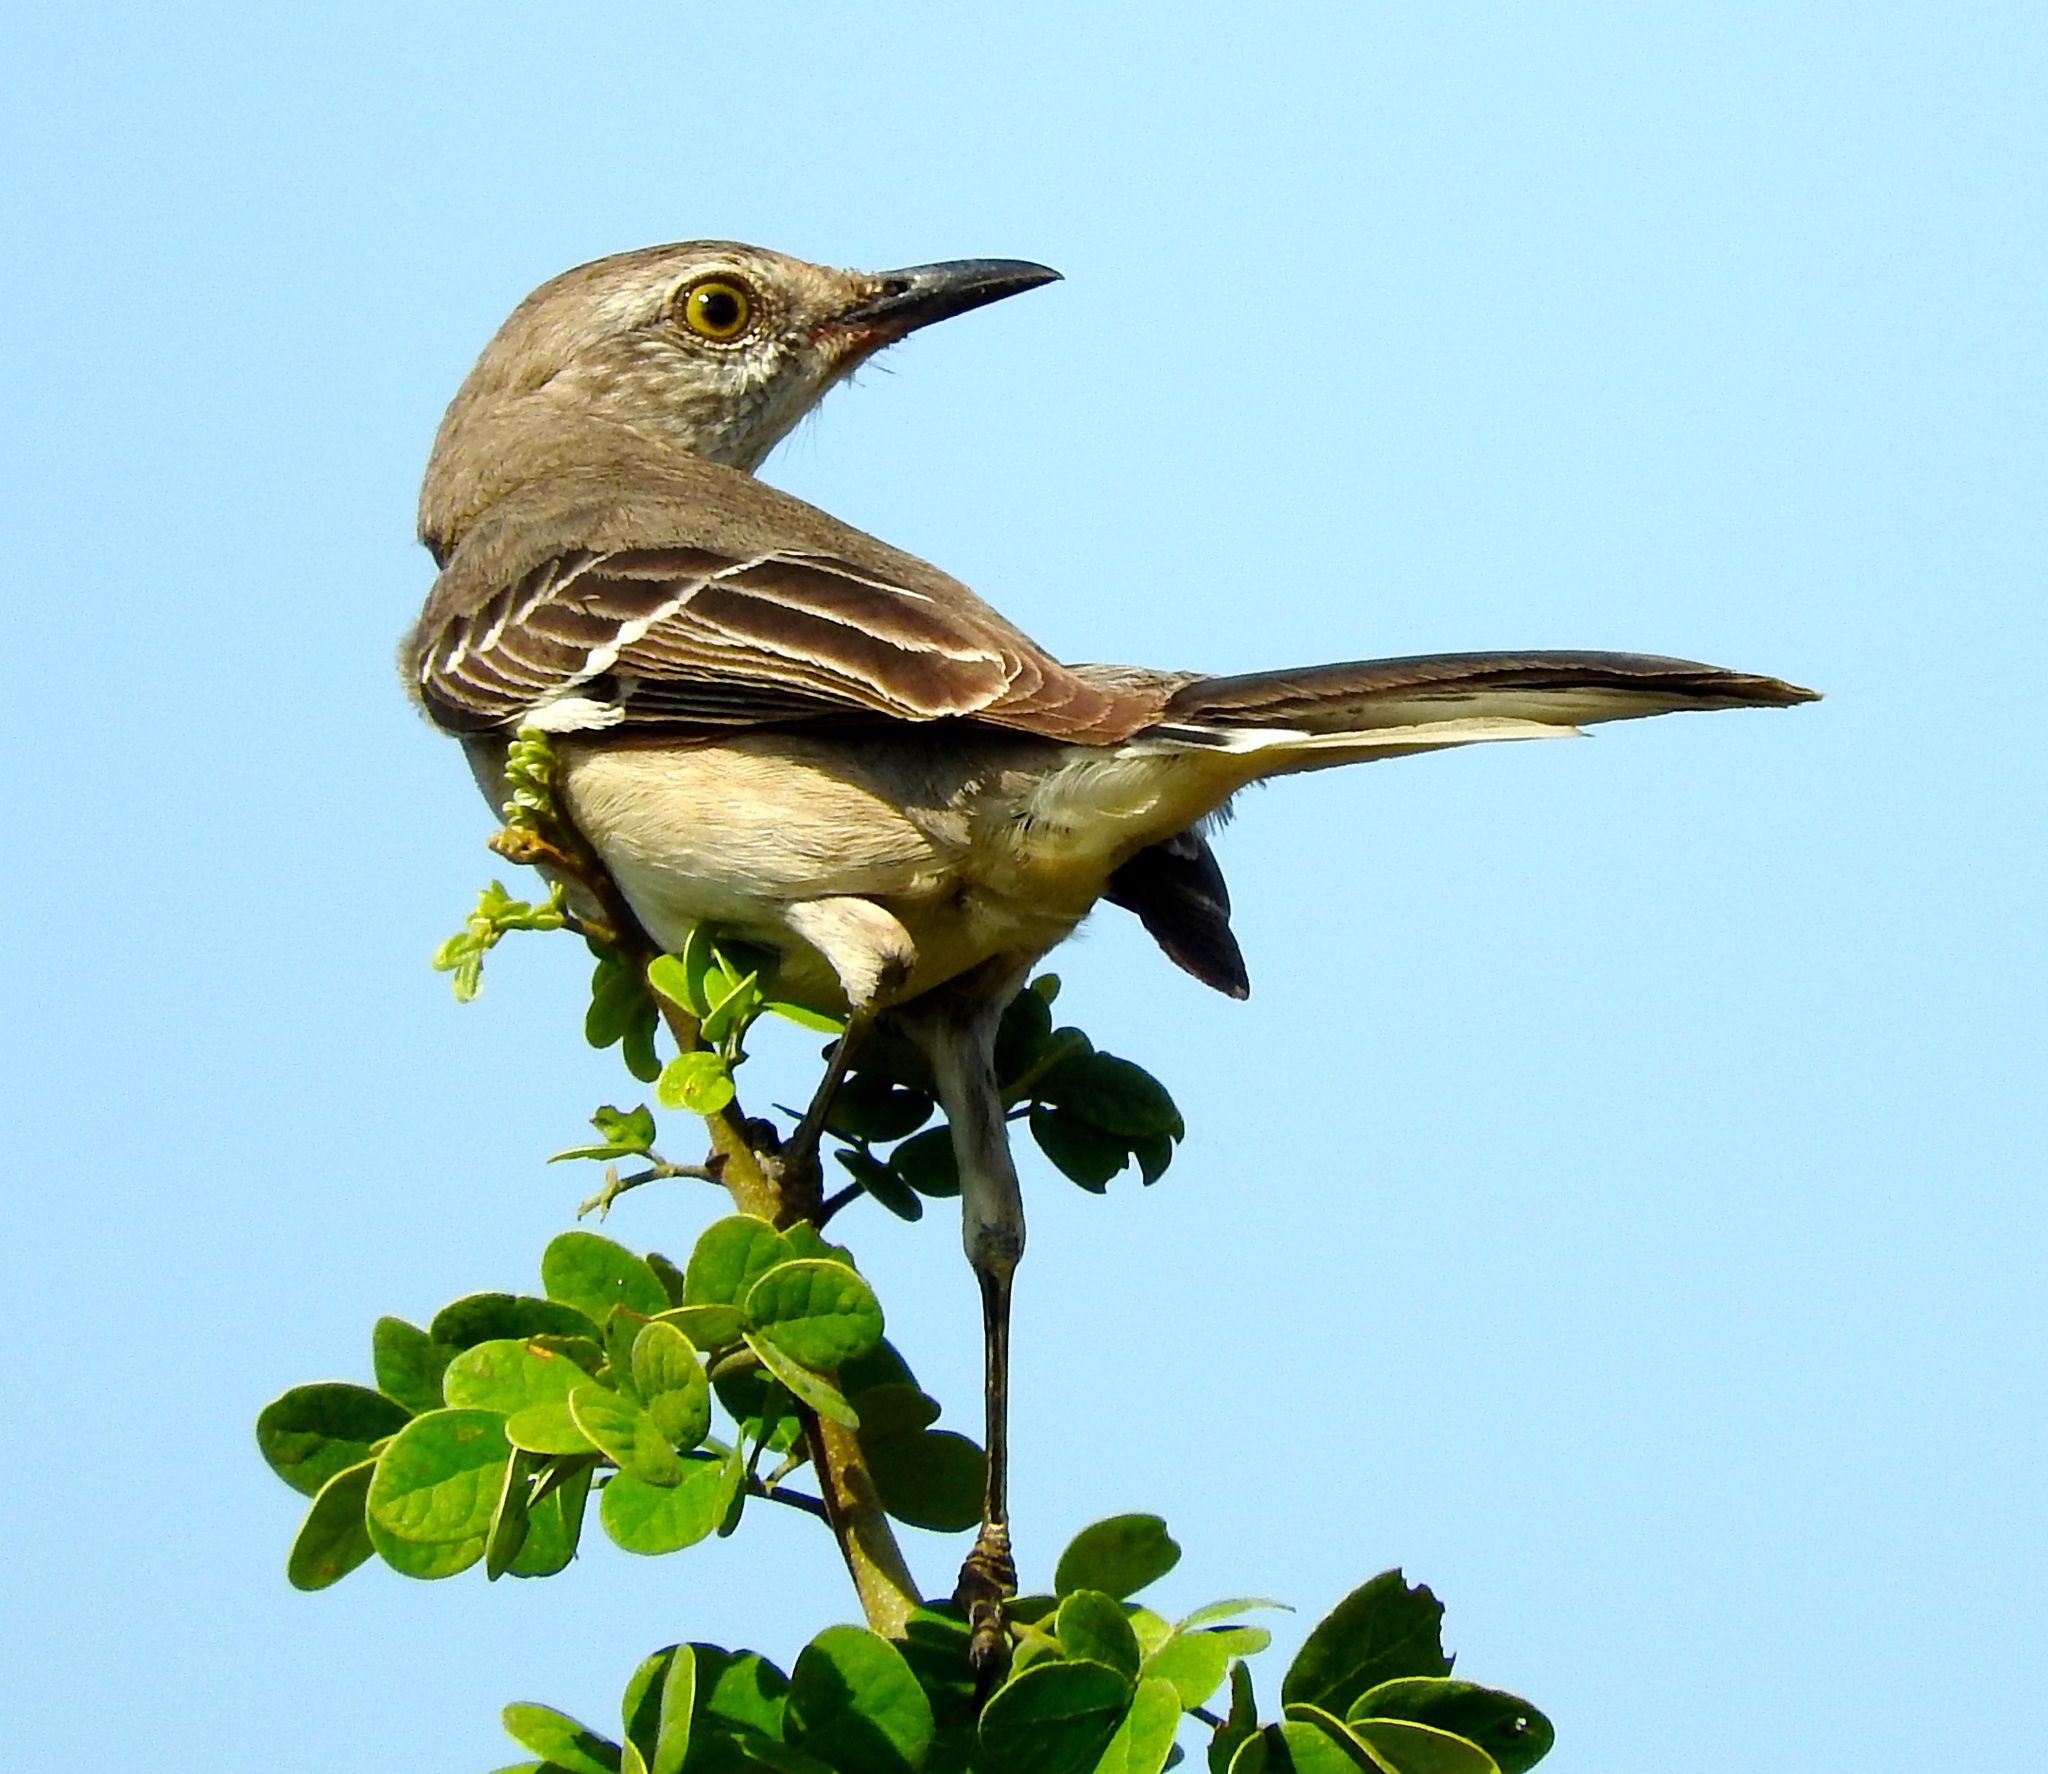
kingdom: Animalia
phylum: Chordata
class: Aves
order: Passeriformes
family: Mimidae
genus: Mimus
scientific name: Mimus polyglottos
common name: Northern mockingbird
